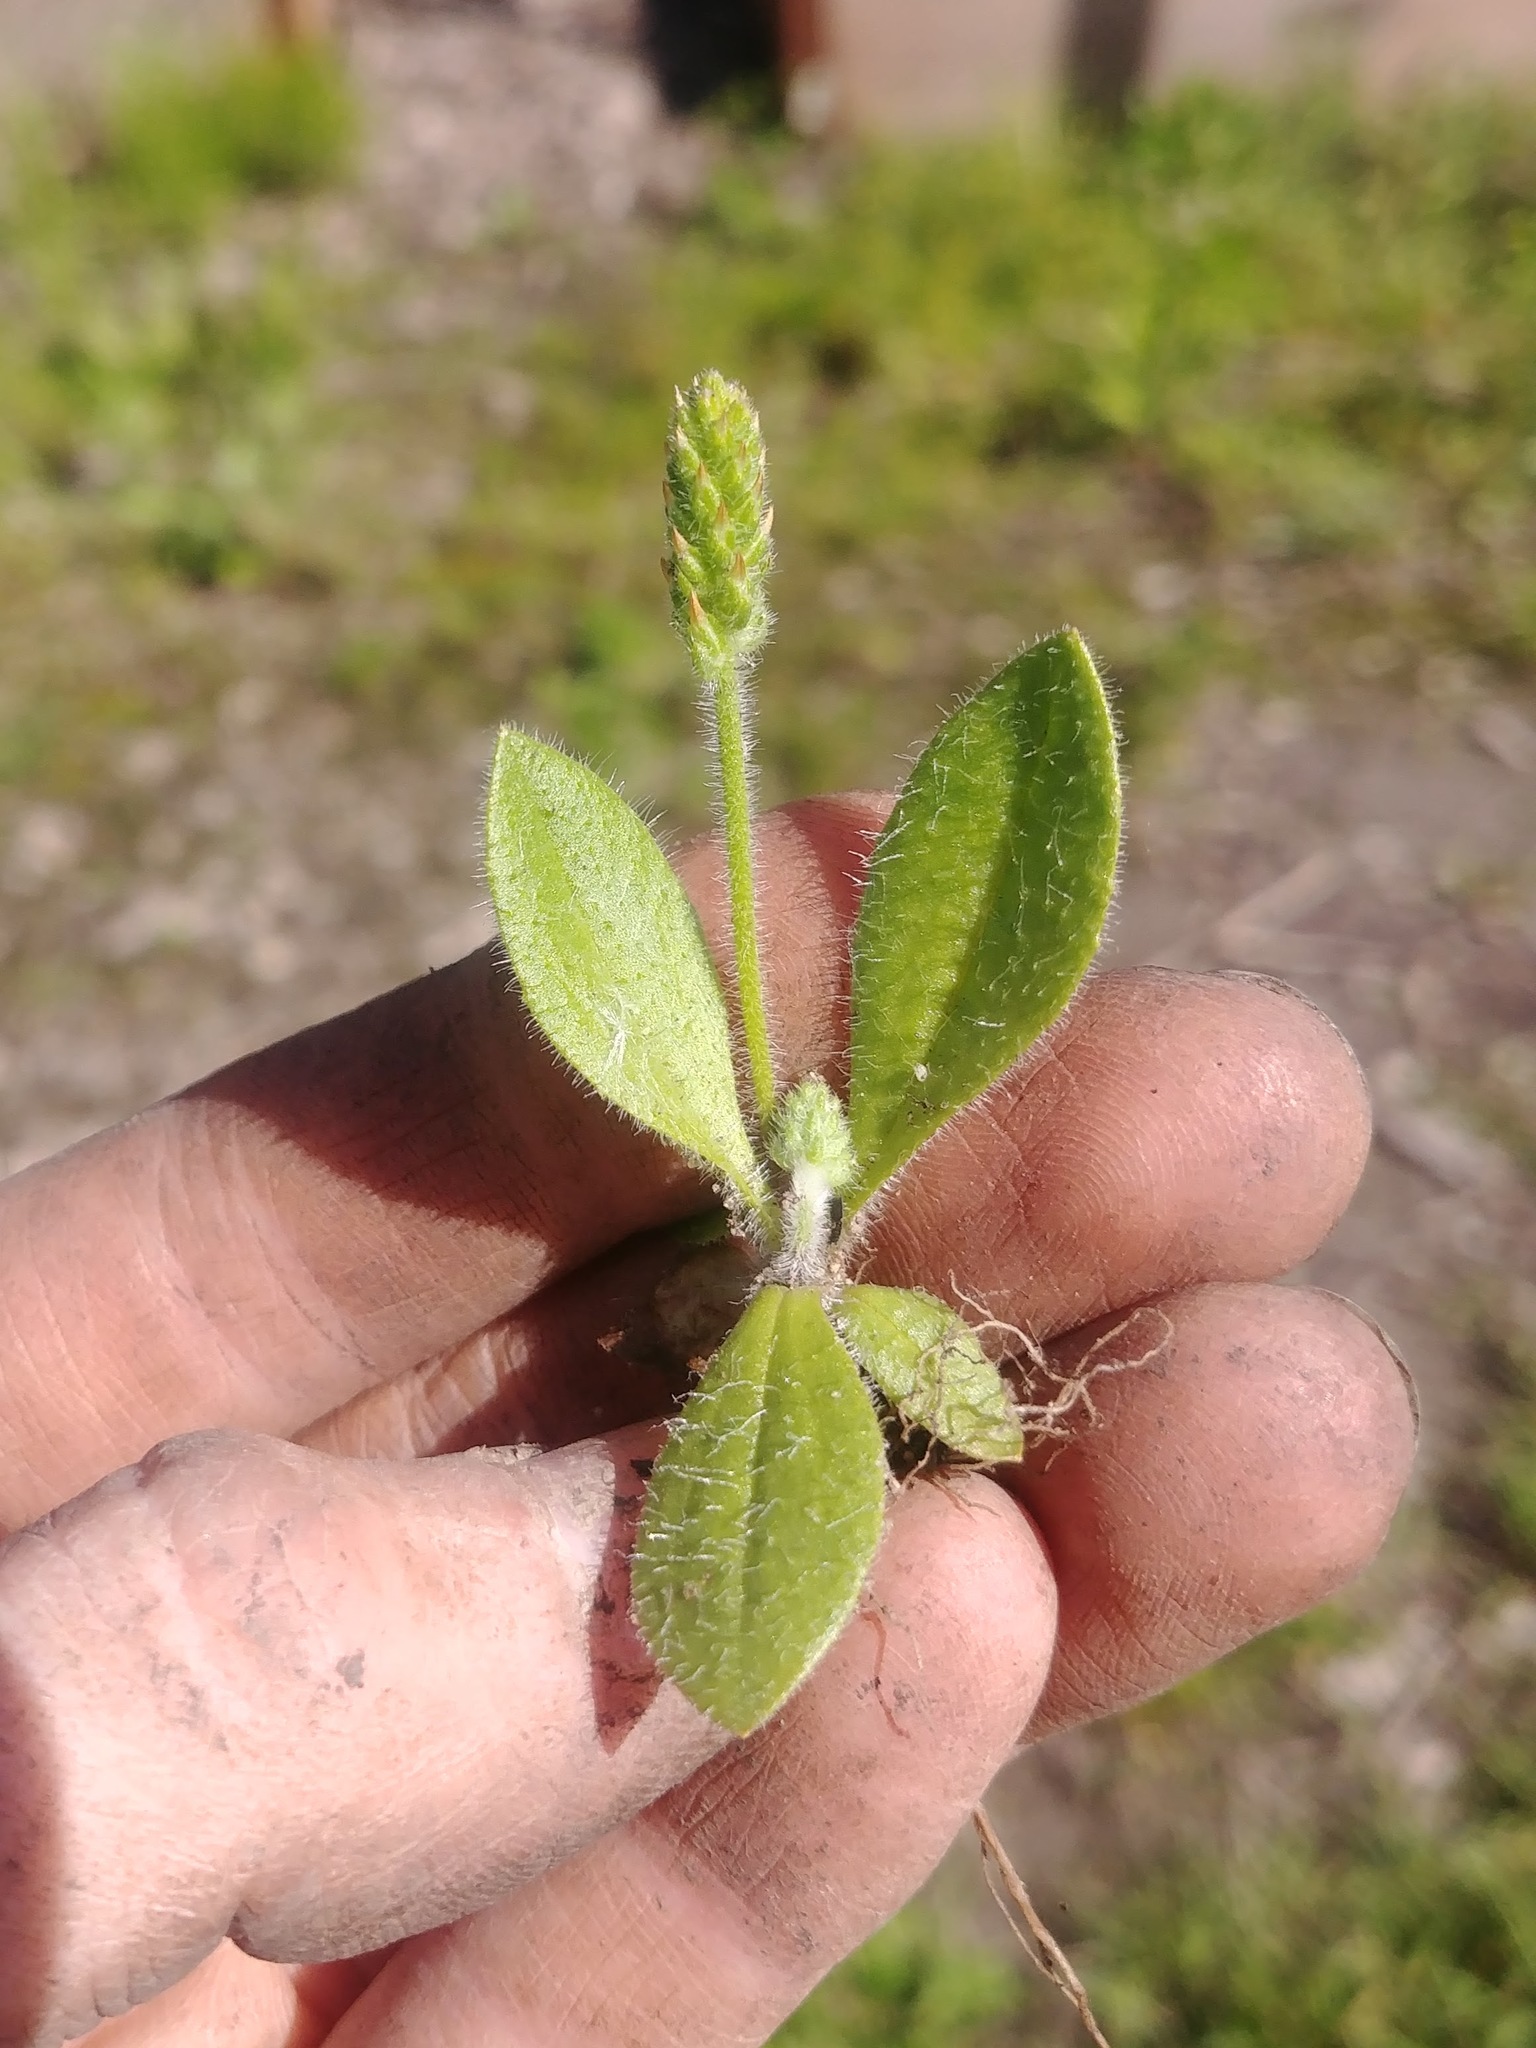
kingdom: Plantae
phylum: Tracheophyta
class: Magnoliopsida
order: Lamiales
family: Plantaginaceae
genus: Plantago
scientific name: Plantago virginica
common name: Hoary plantain
